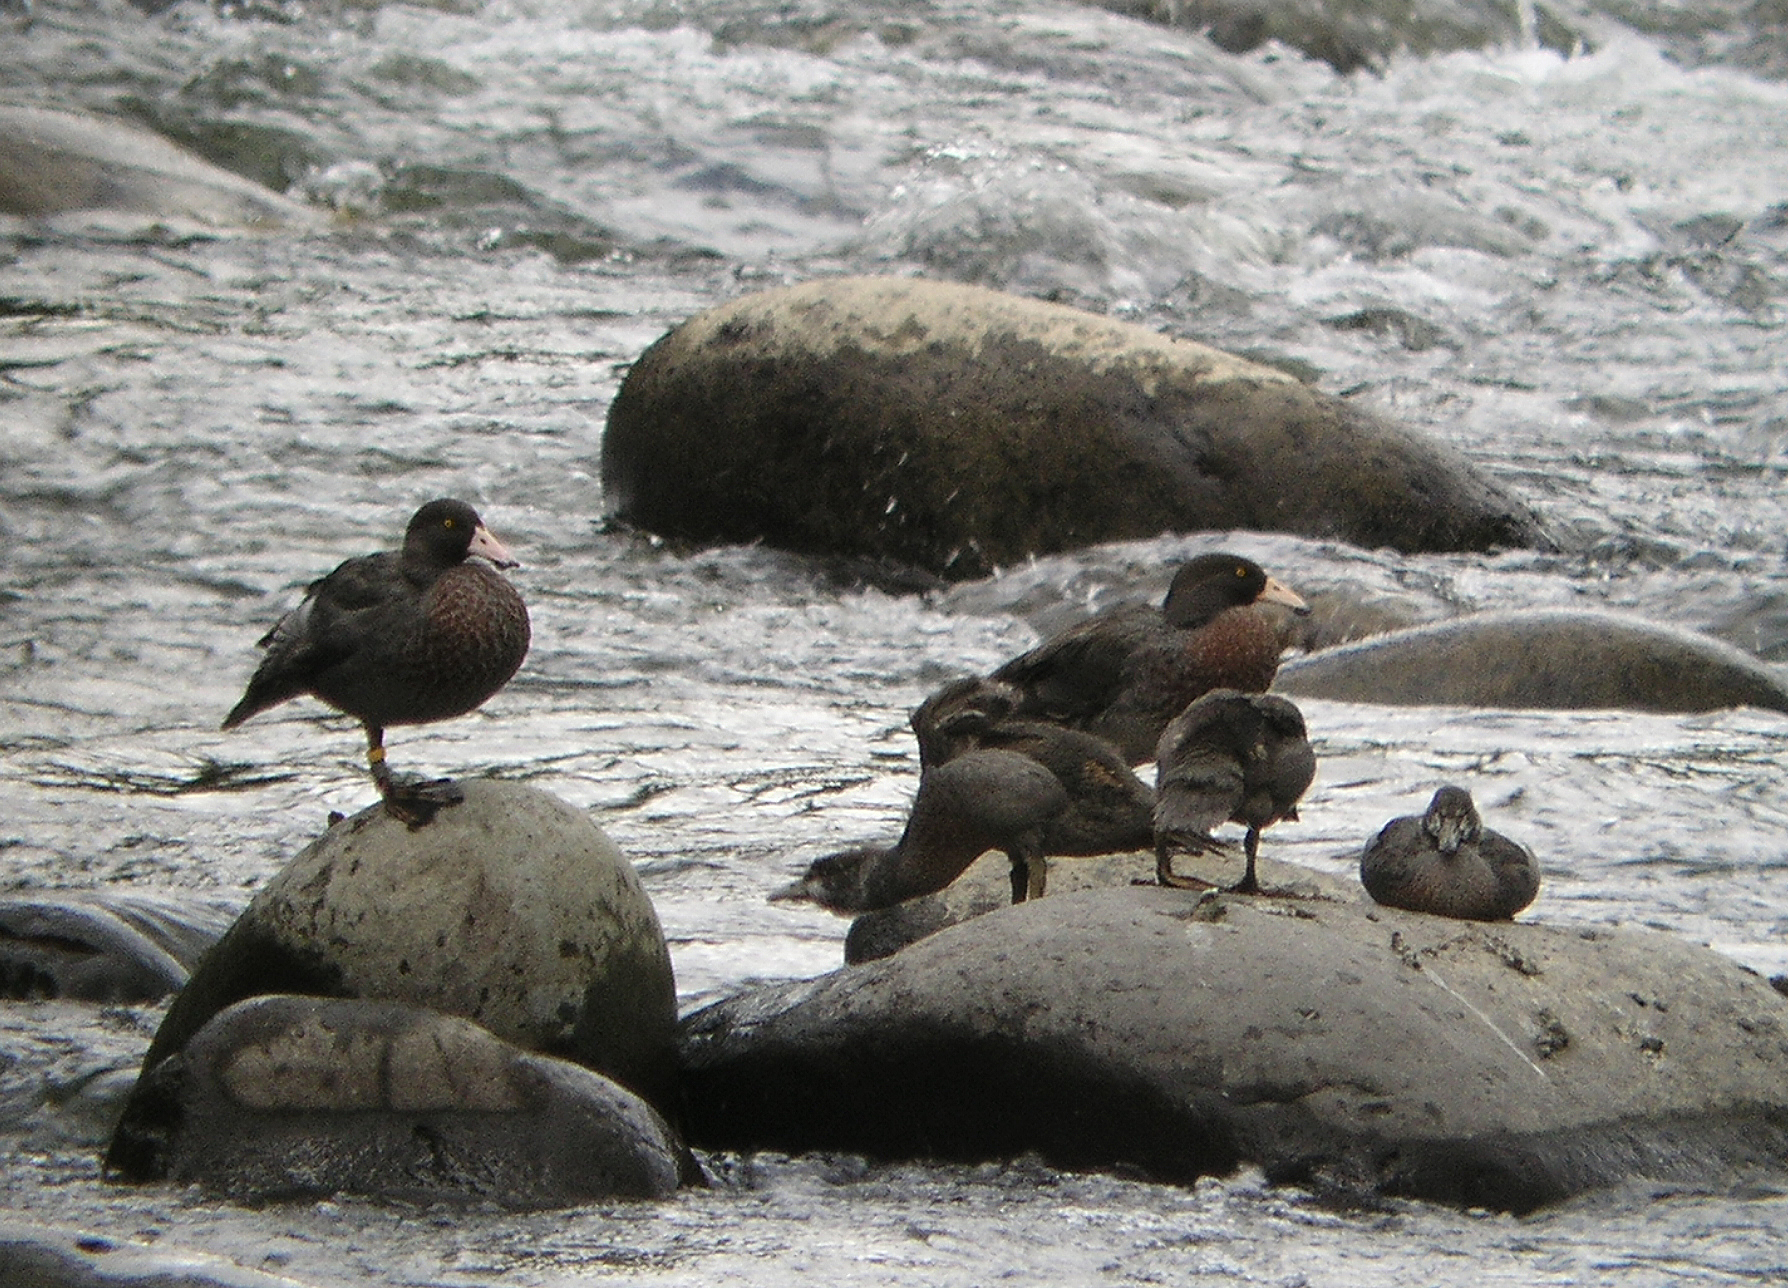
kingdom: Animalia
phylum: Chordata
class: Aves
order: Anseriformes
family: Anatidae
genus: Hymenolaimus
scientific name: Hymenolaimus malacorhynchos
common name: Blue duck
